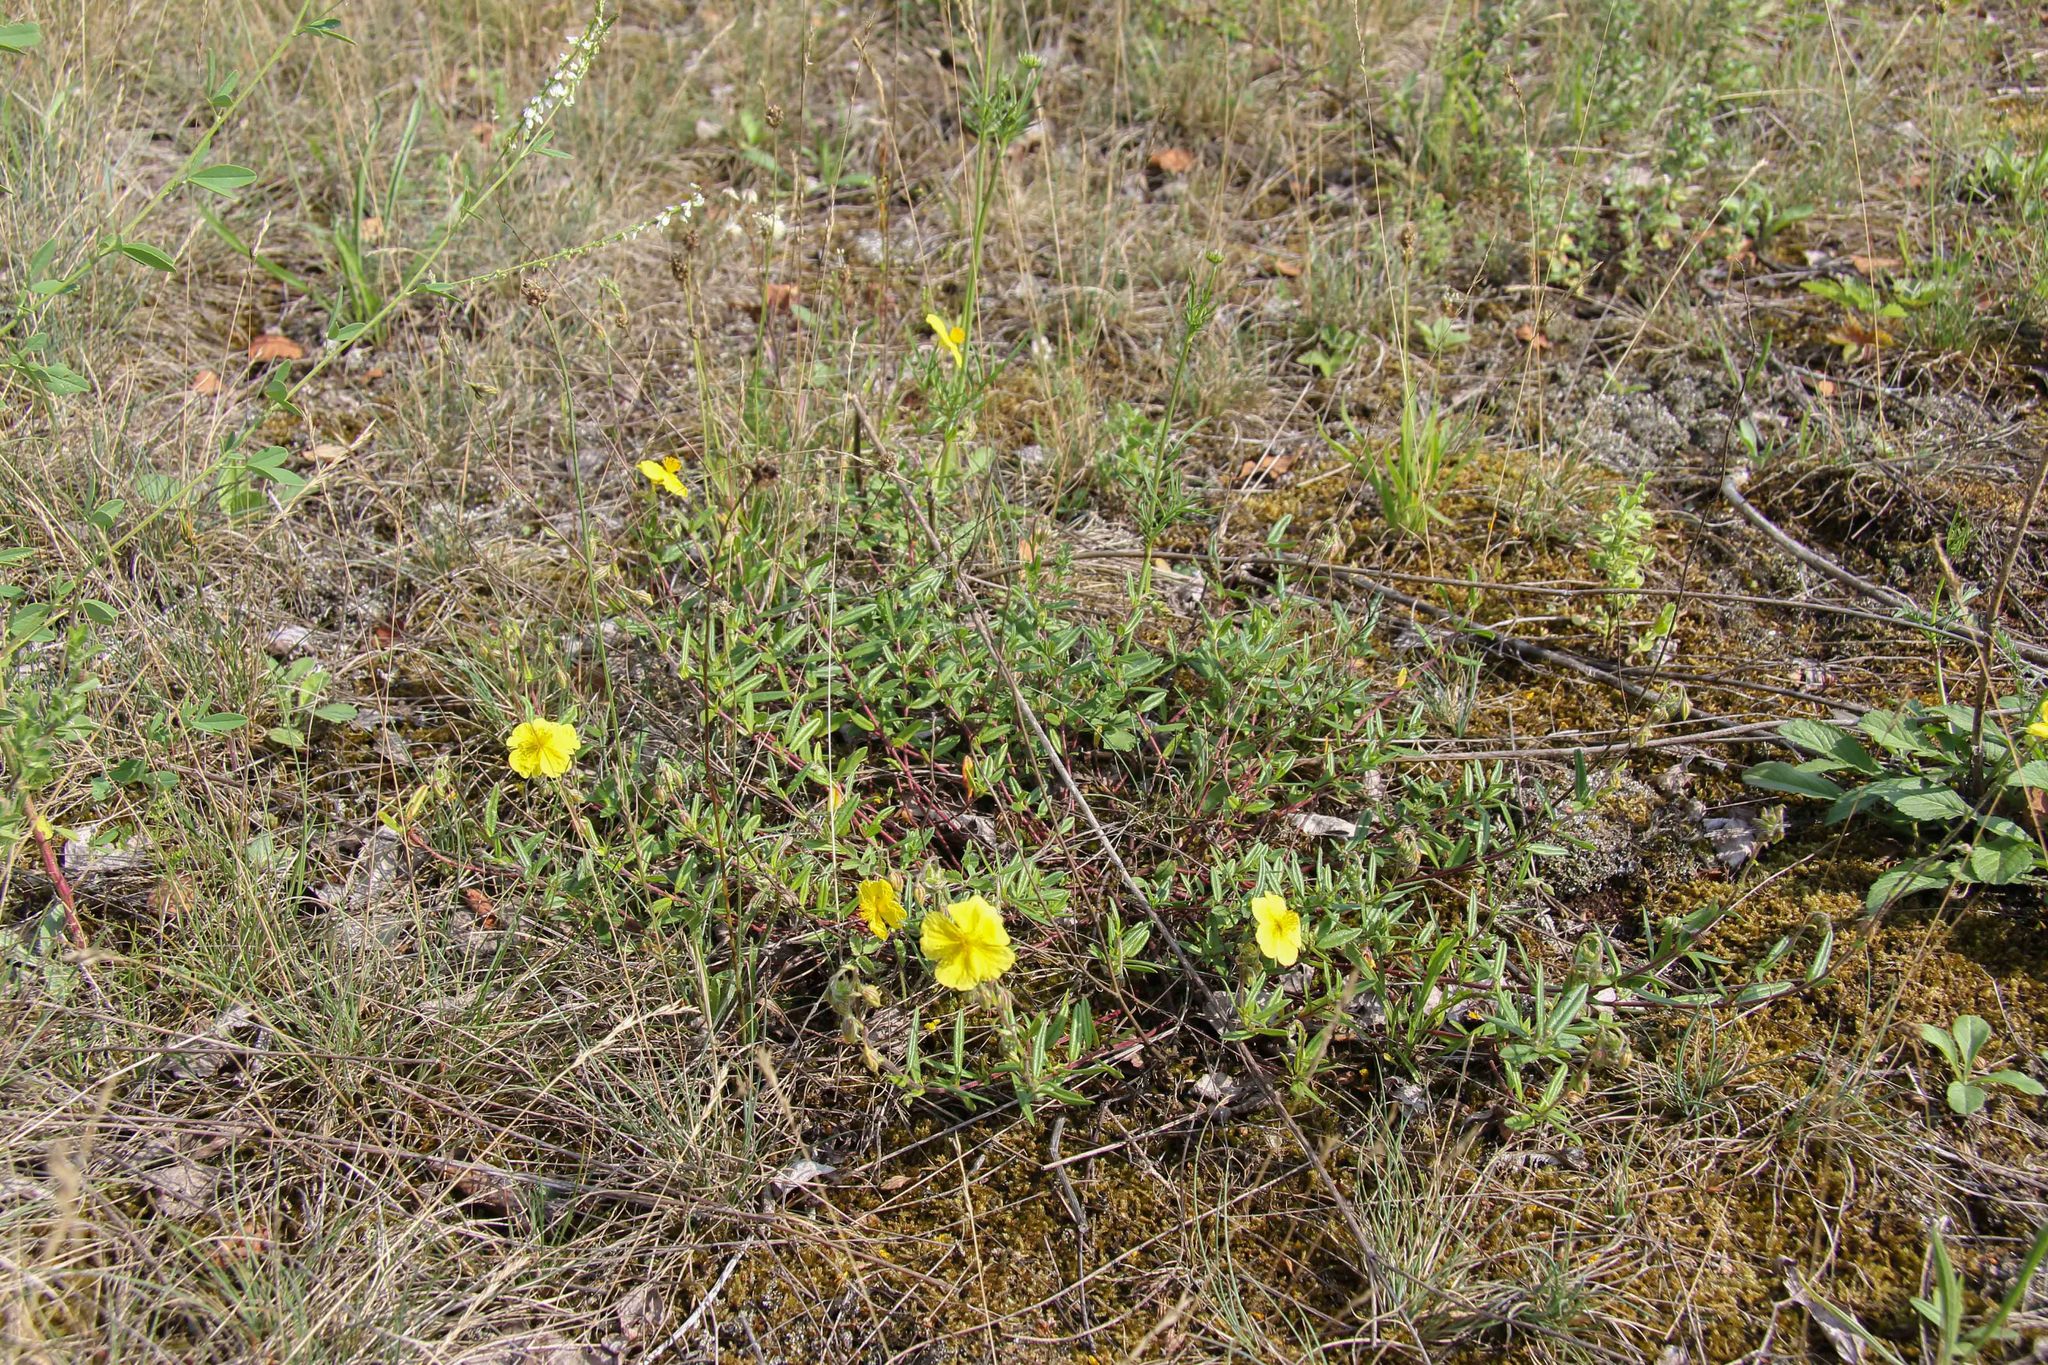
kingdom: Plantae
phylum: Tracheophyta
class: Magnoliopsida
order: Malvales
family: Cistaceae
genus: Helianthemum
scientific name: Helianthemum nummularium
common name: Common rock-rose
